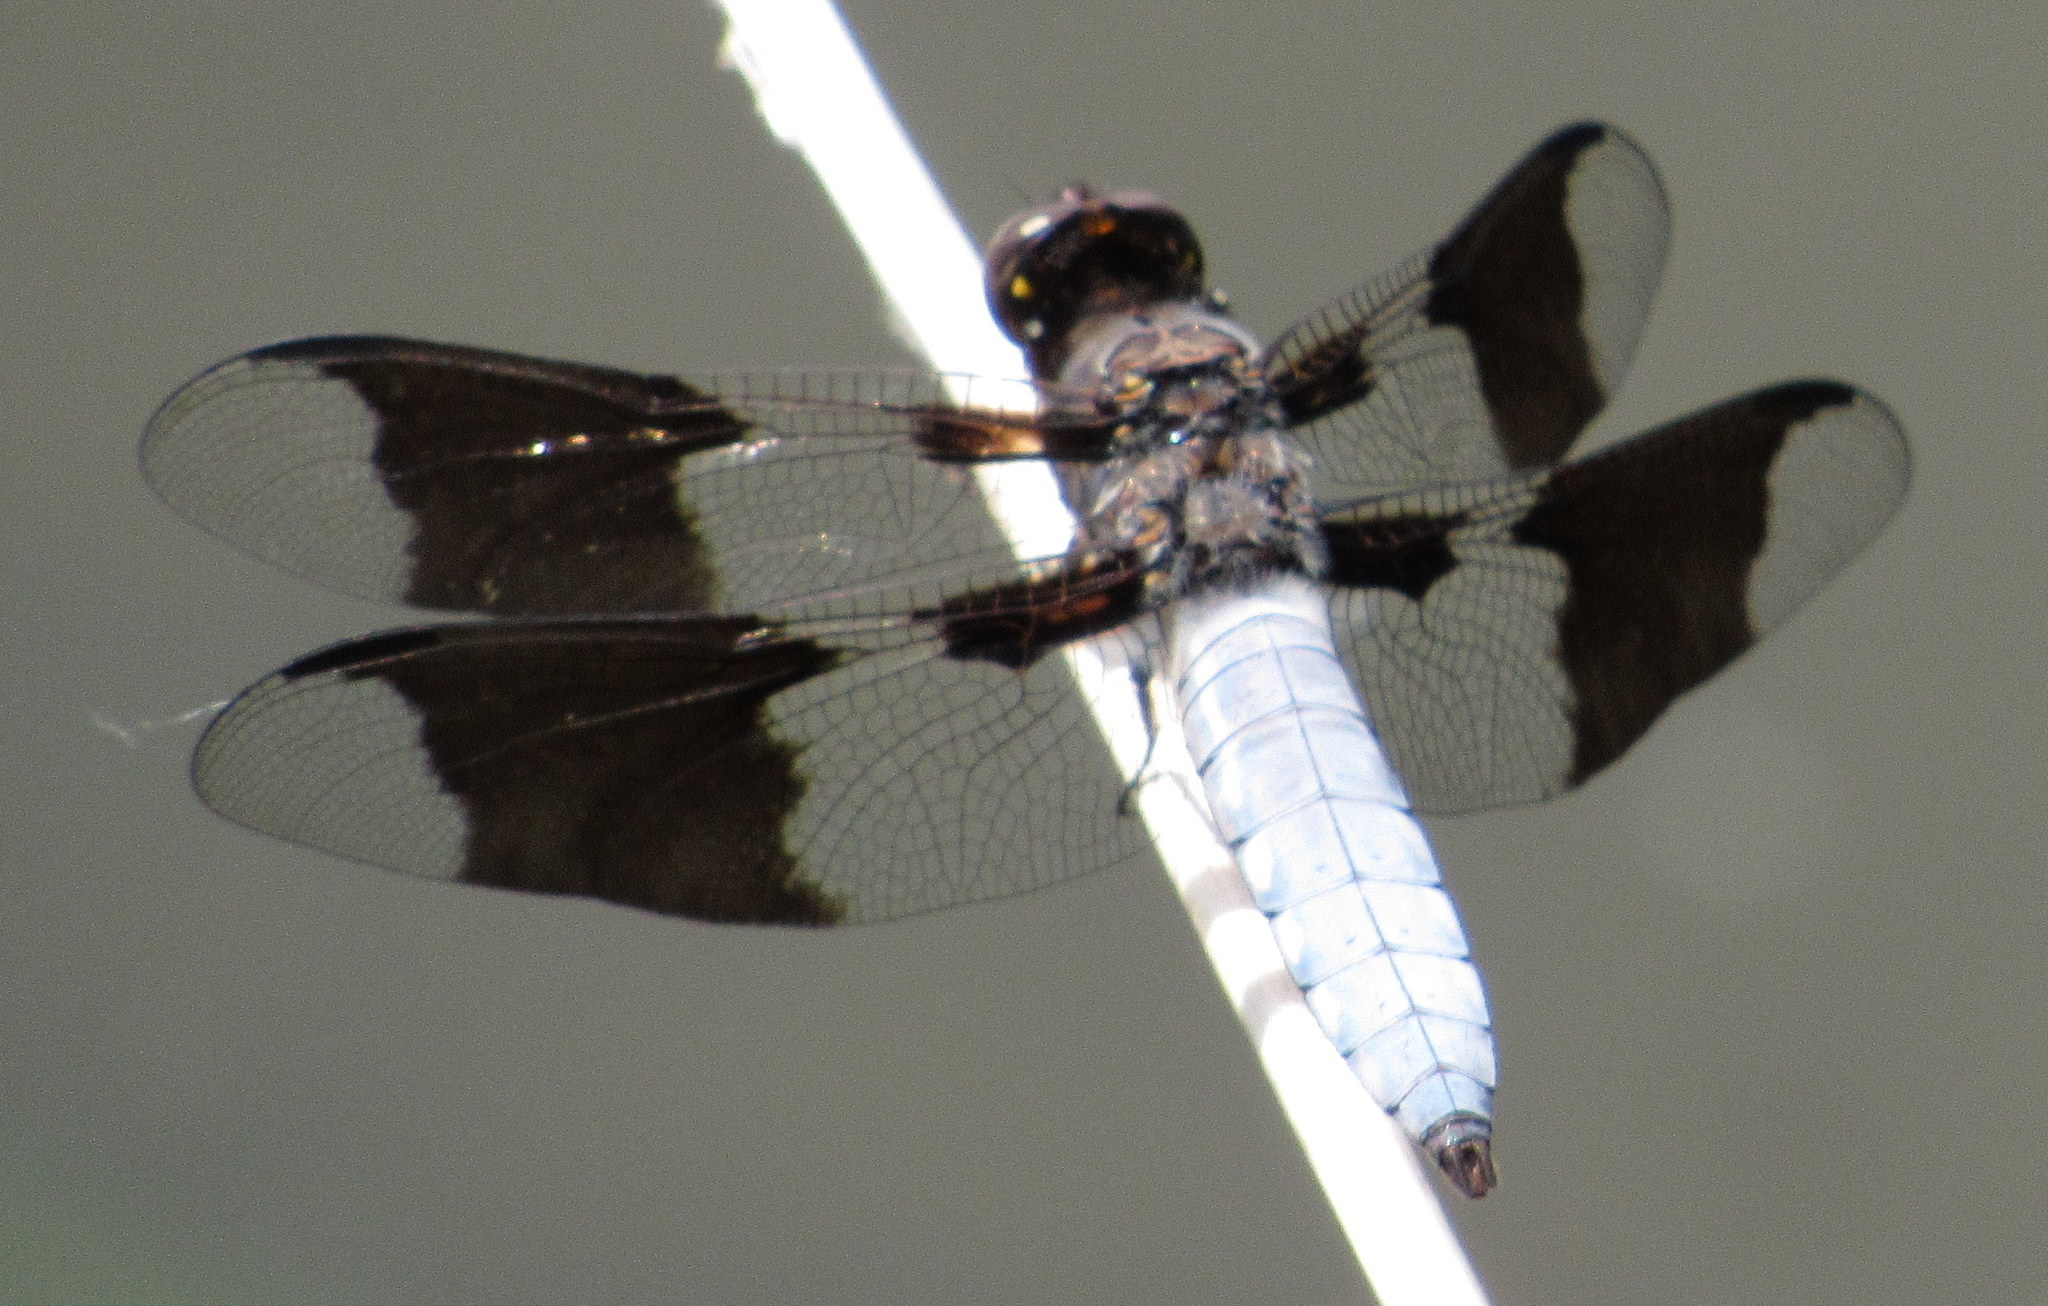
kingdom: Animalia
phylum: Arthropoda
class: Insecta
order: Odonata
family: Libellulidae
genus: Plathemis
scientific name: Plathemis lydia
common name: Common whitetail
